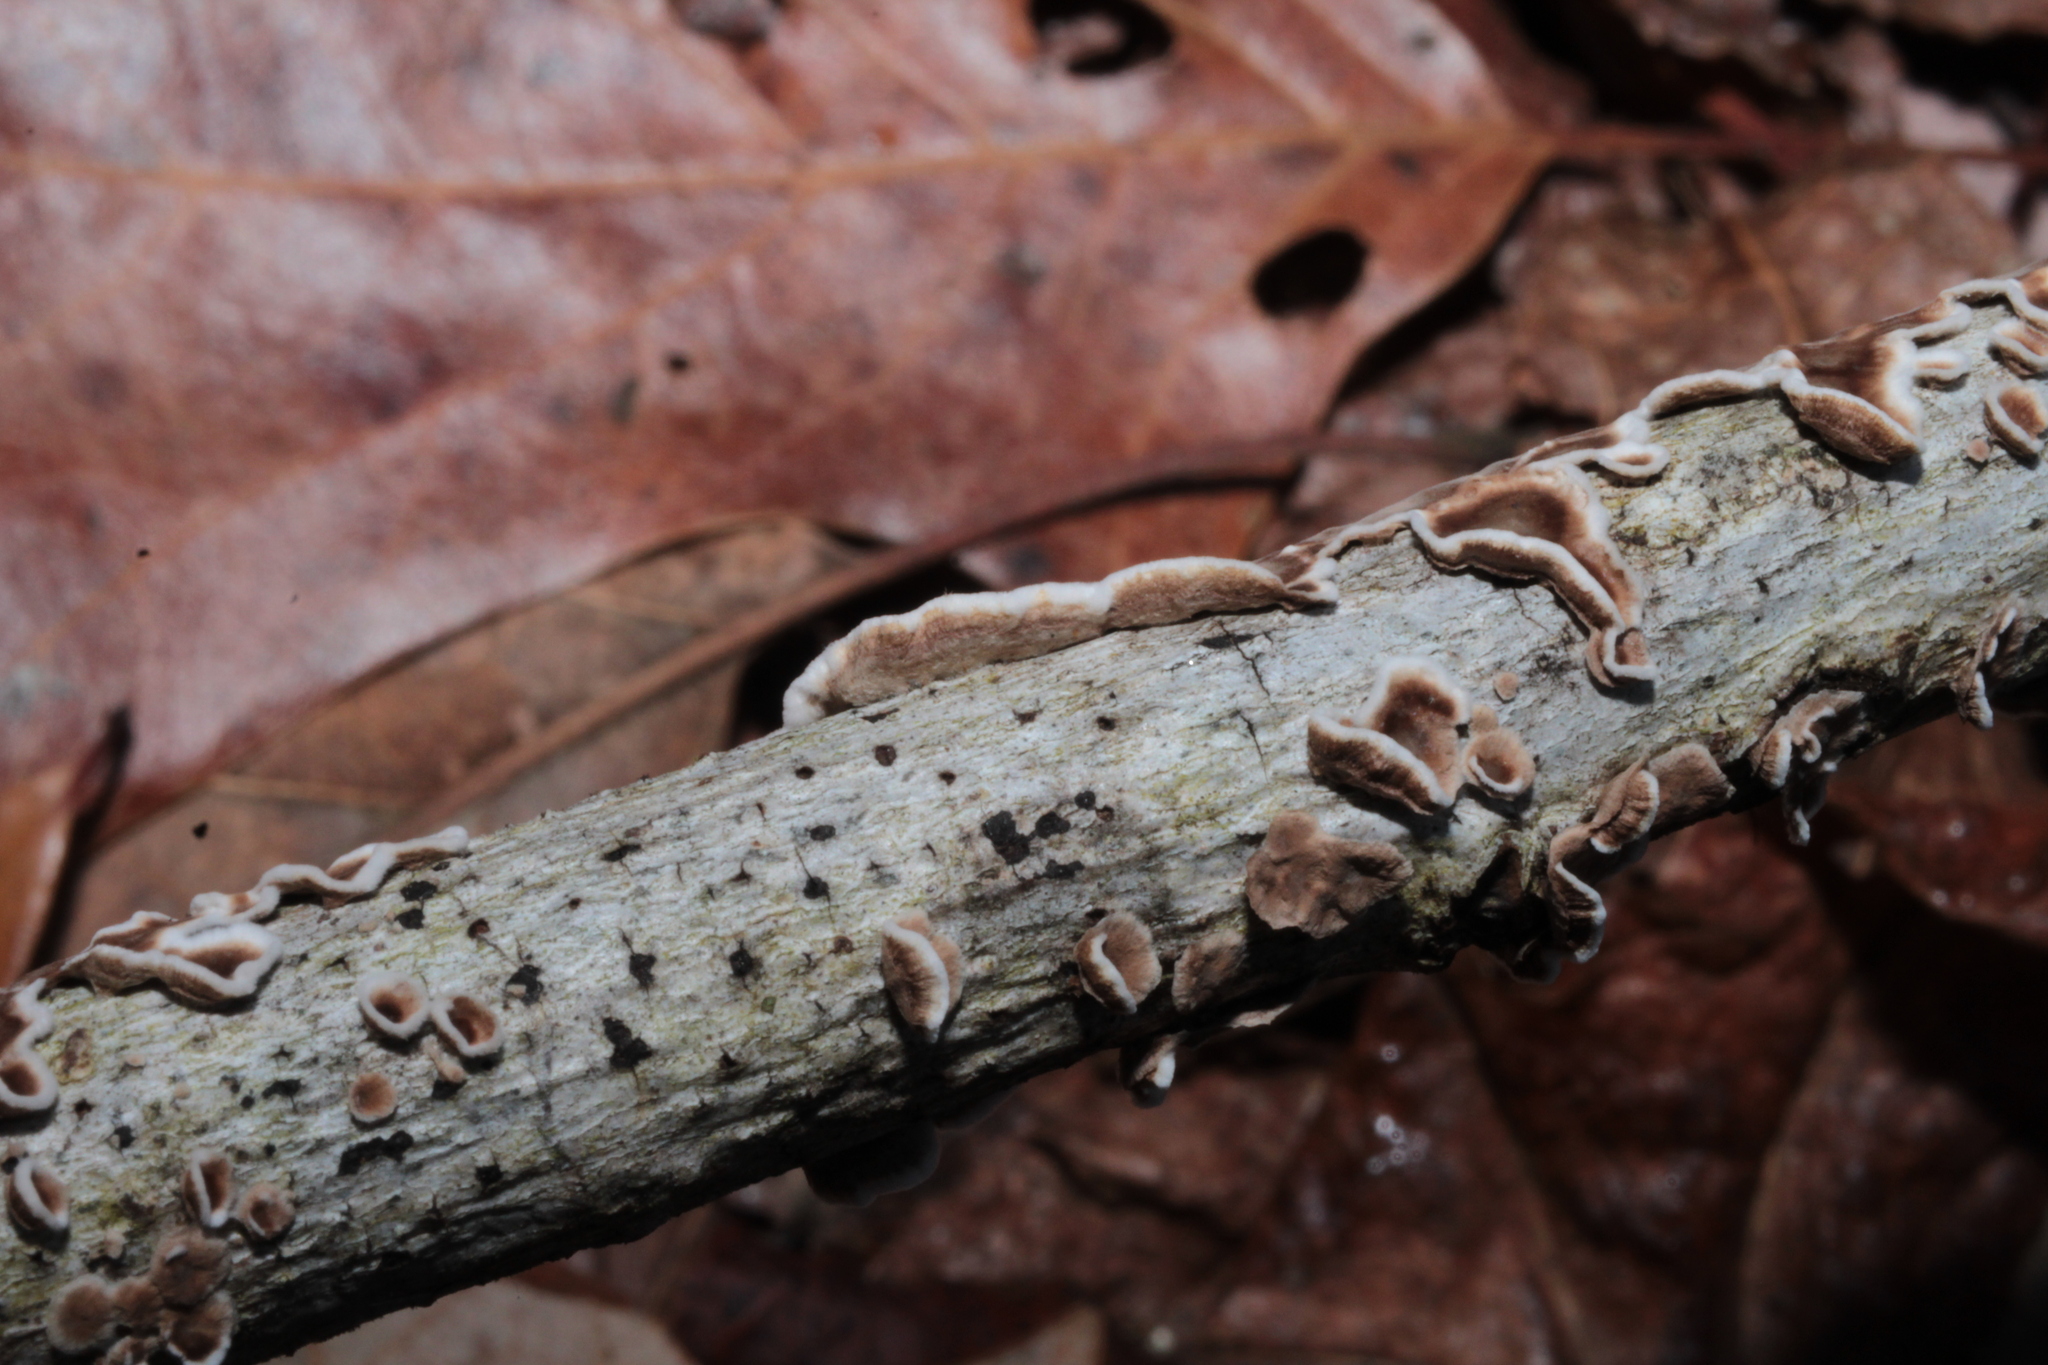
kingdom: Fungi
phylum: Basidiomycota
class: Agaricomycetes
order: Russulales
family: Peniophoraceae
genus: Peniophora
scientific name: Peniophora albobadia
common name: Giraffe spots
